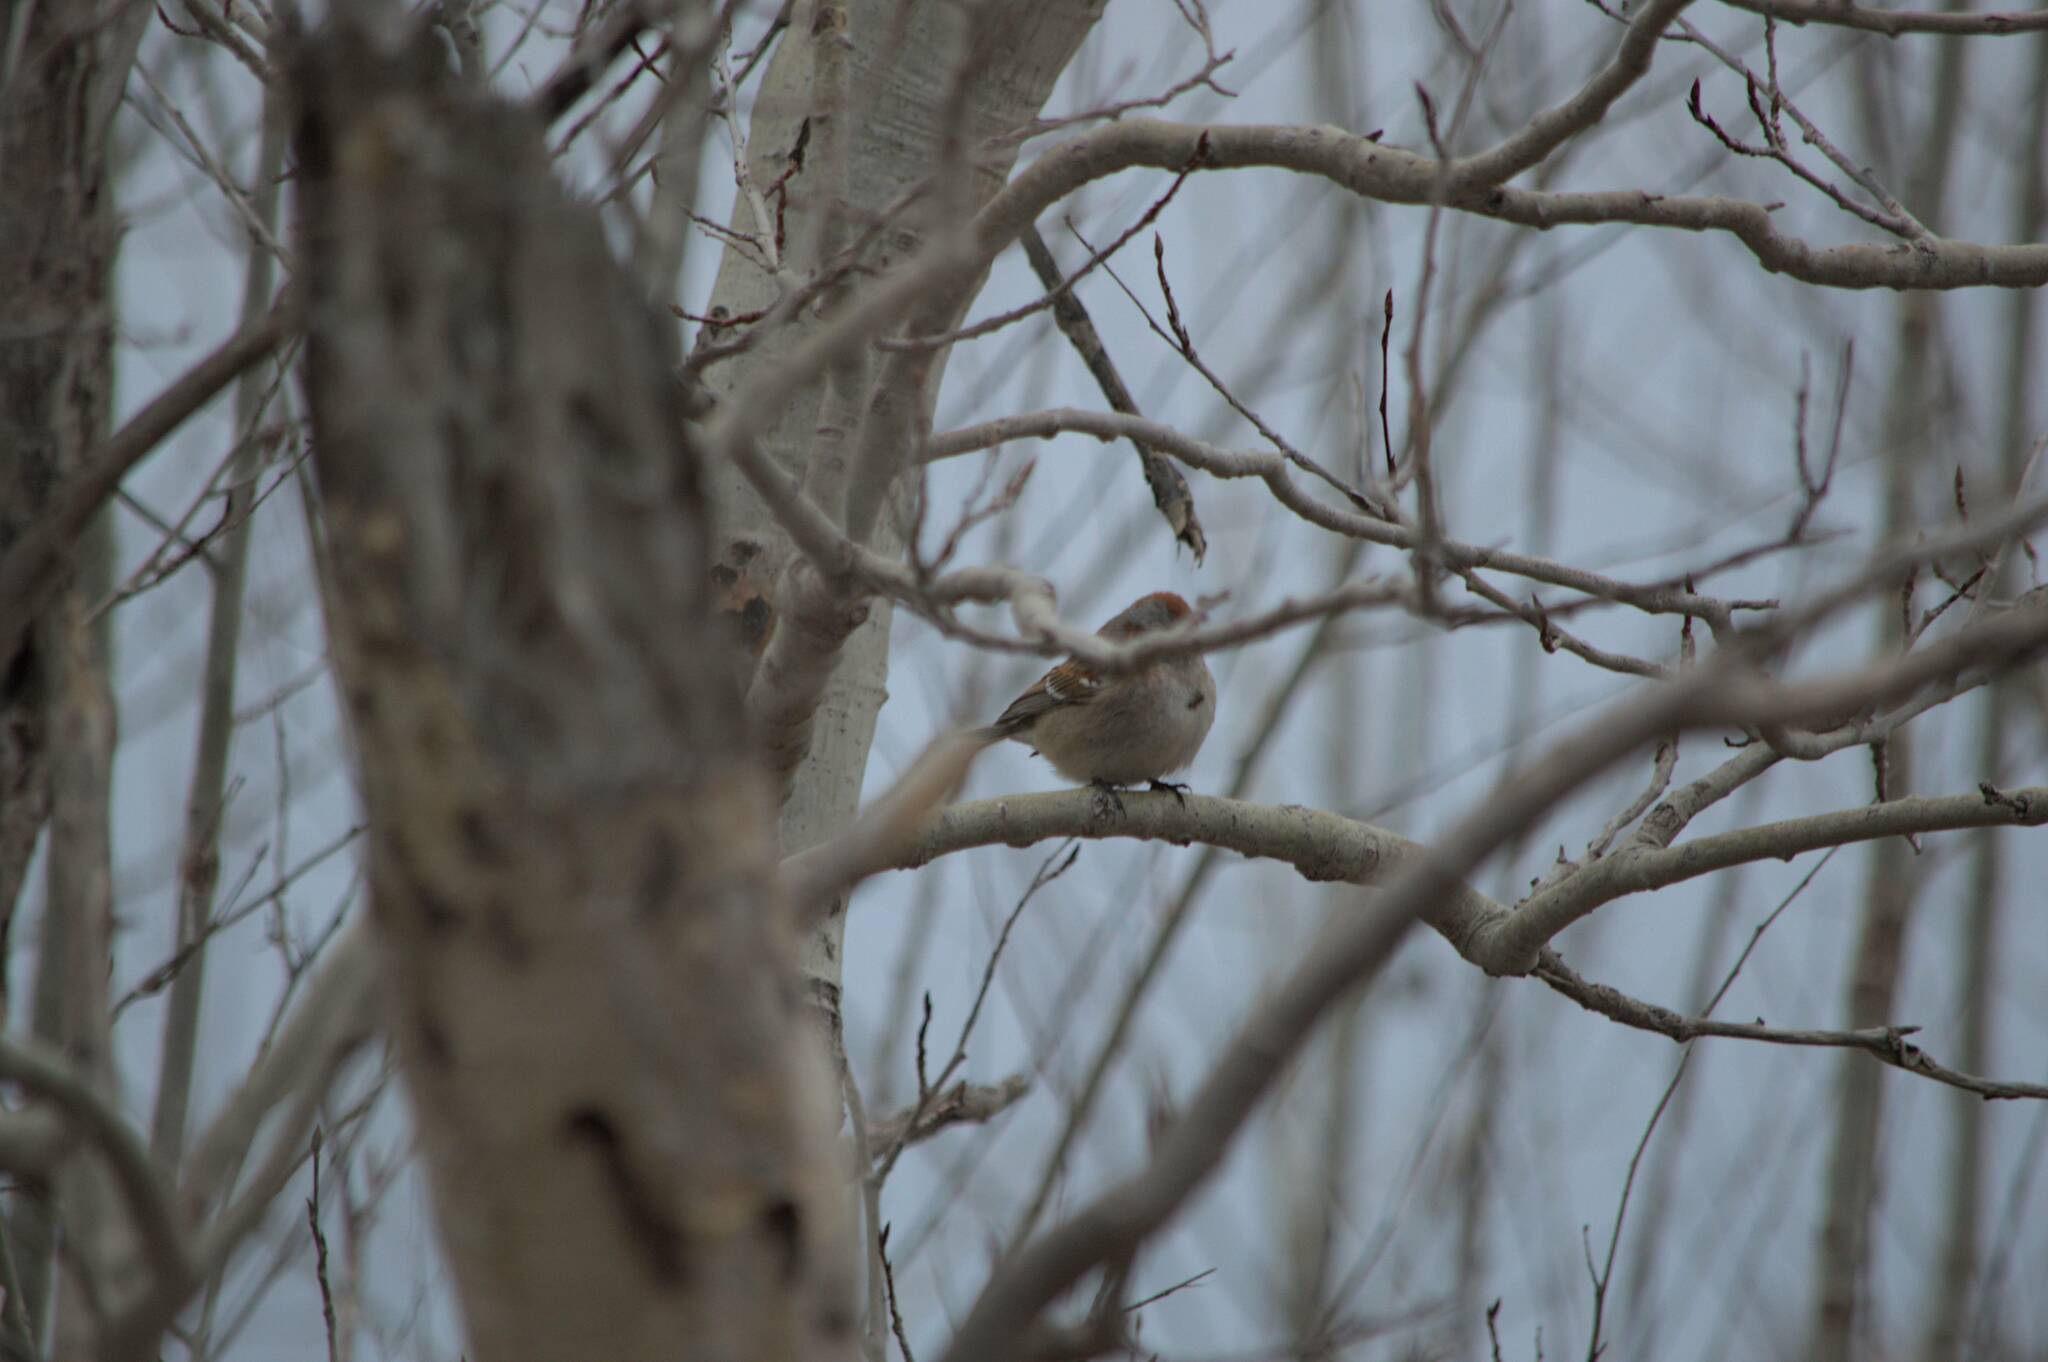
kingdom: Animalia
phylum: Chordata
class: Aves
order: Passeriformes
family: Passerellidae
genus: Spizelloides
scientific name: Spizelloides arborea
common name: American tree sparrow
